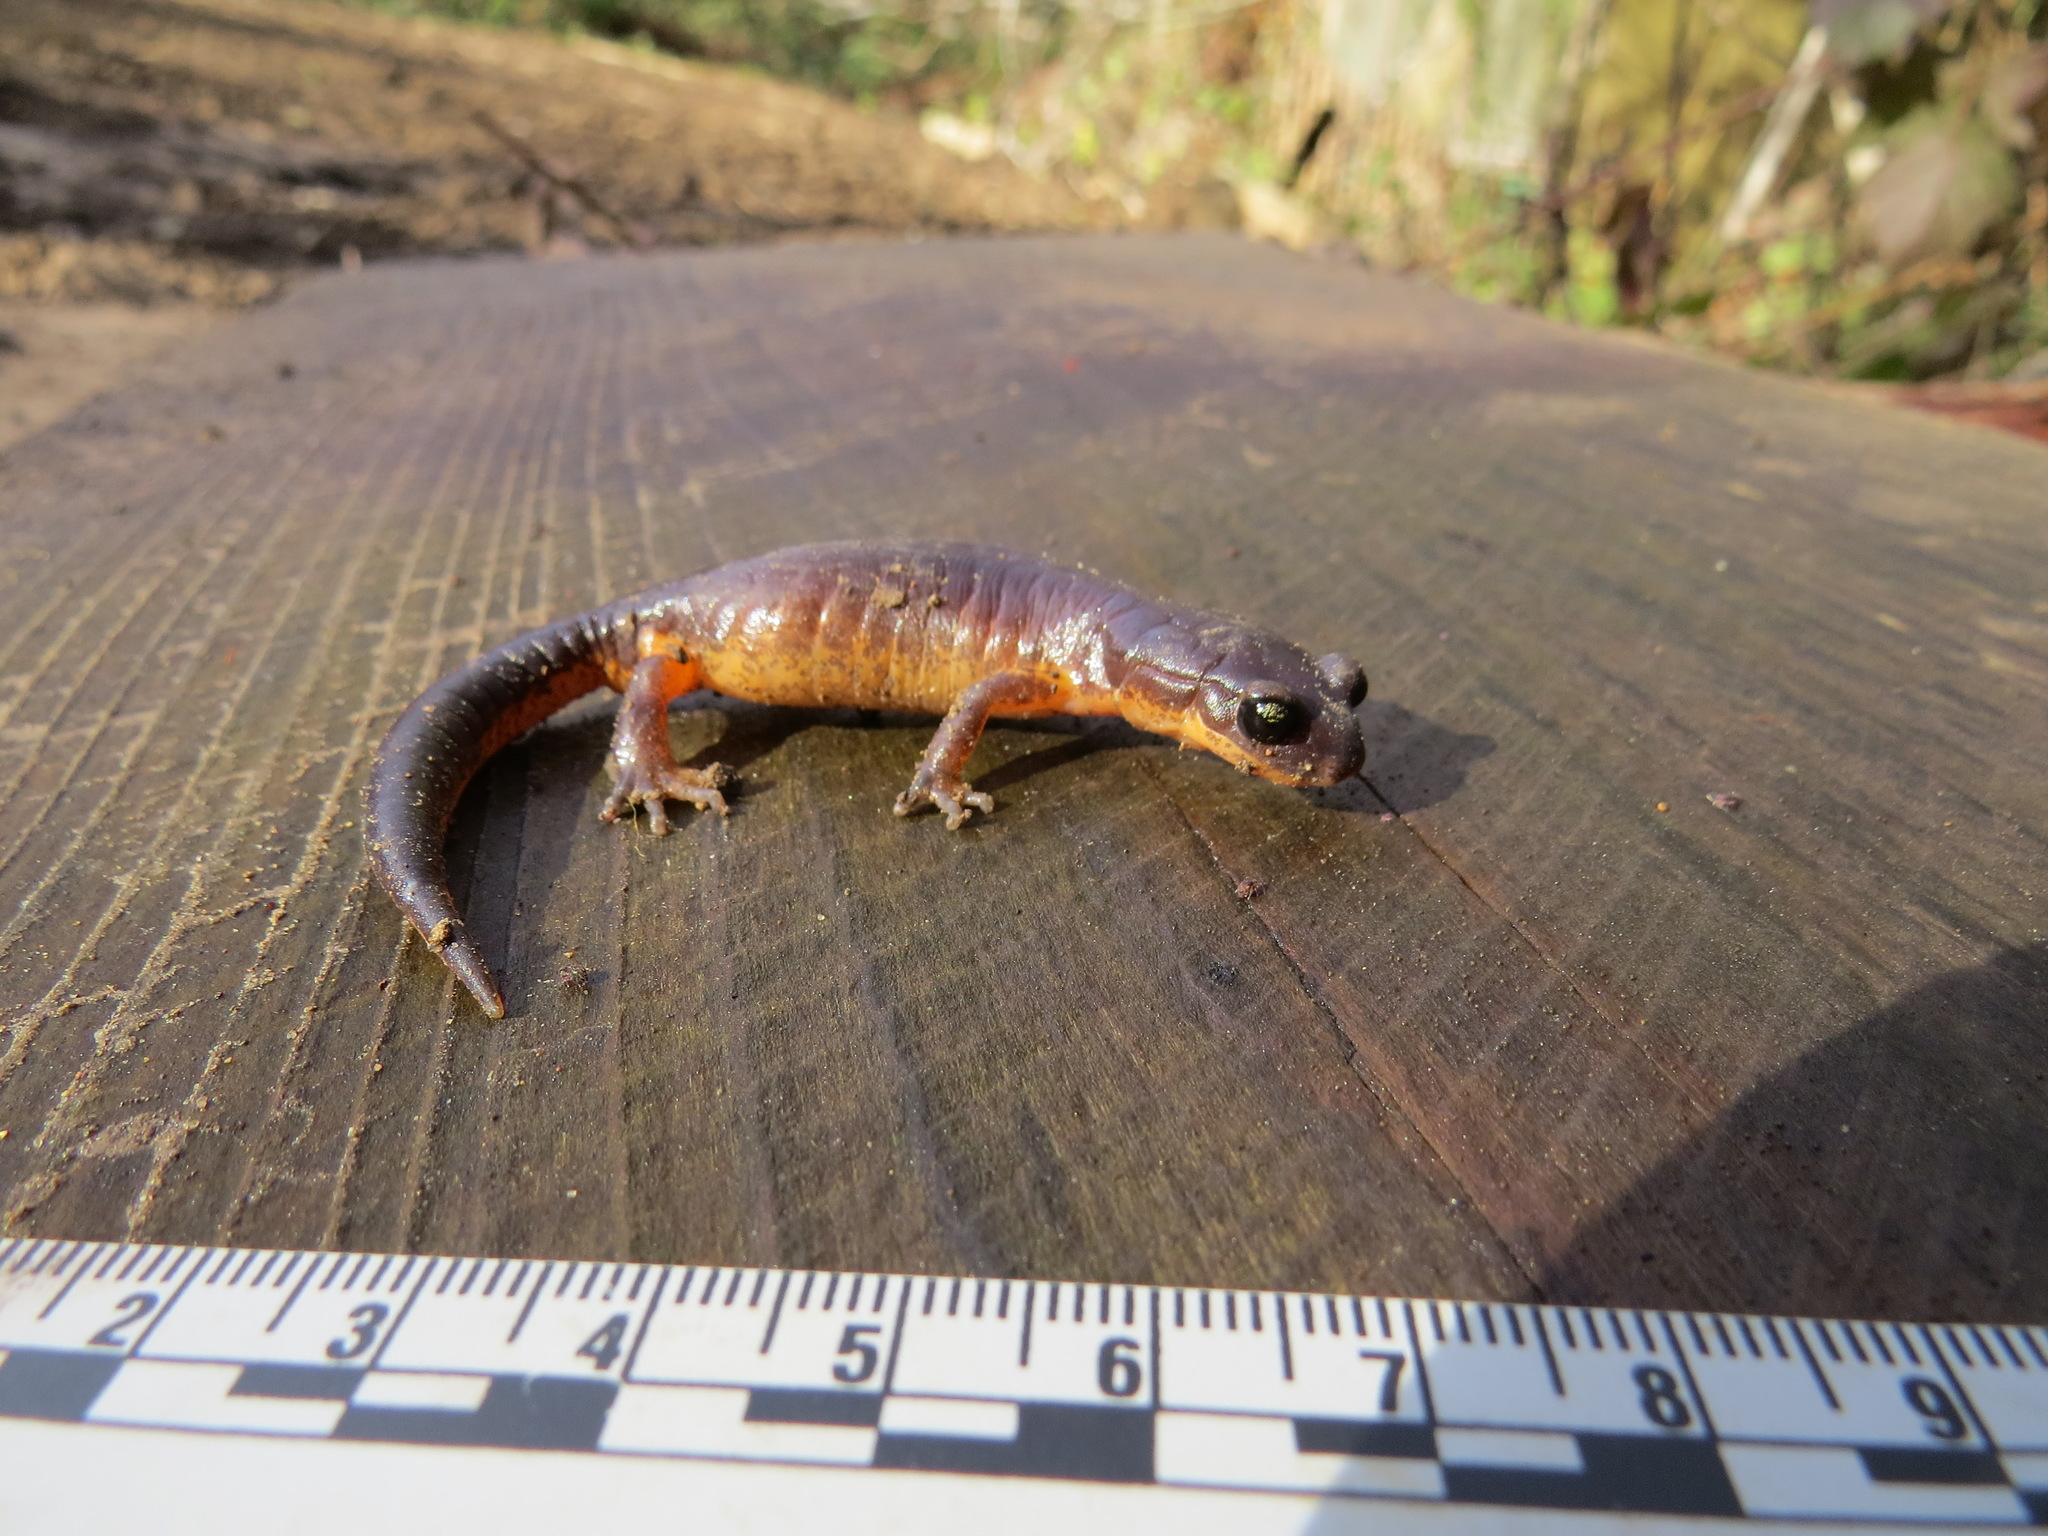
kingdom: Animalia
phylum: Chordata
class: Amphibia
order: Caudata
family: Plethodontidae
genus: Ensatina
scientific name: Ensatina eschscholtzii
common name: Ensatina
